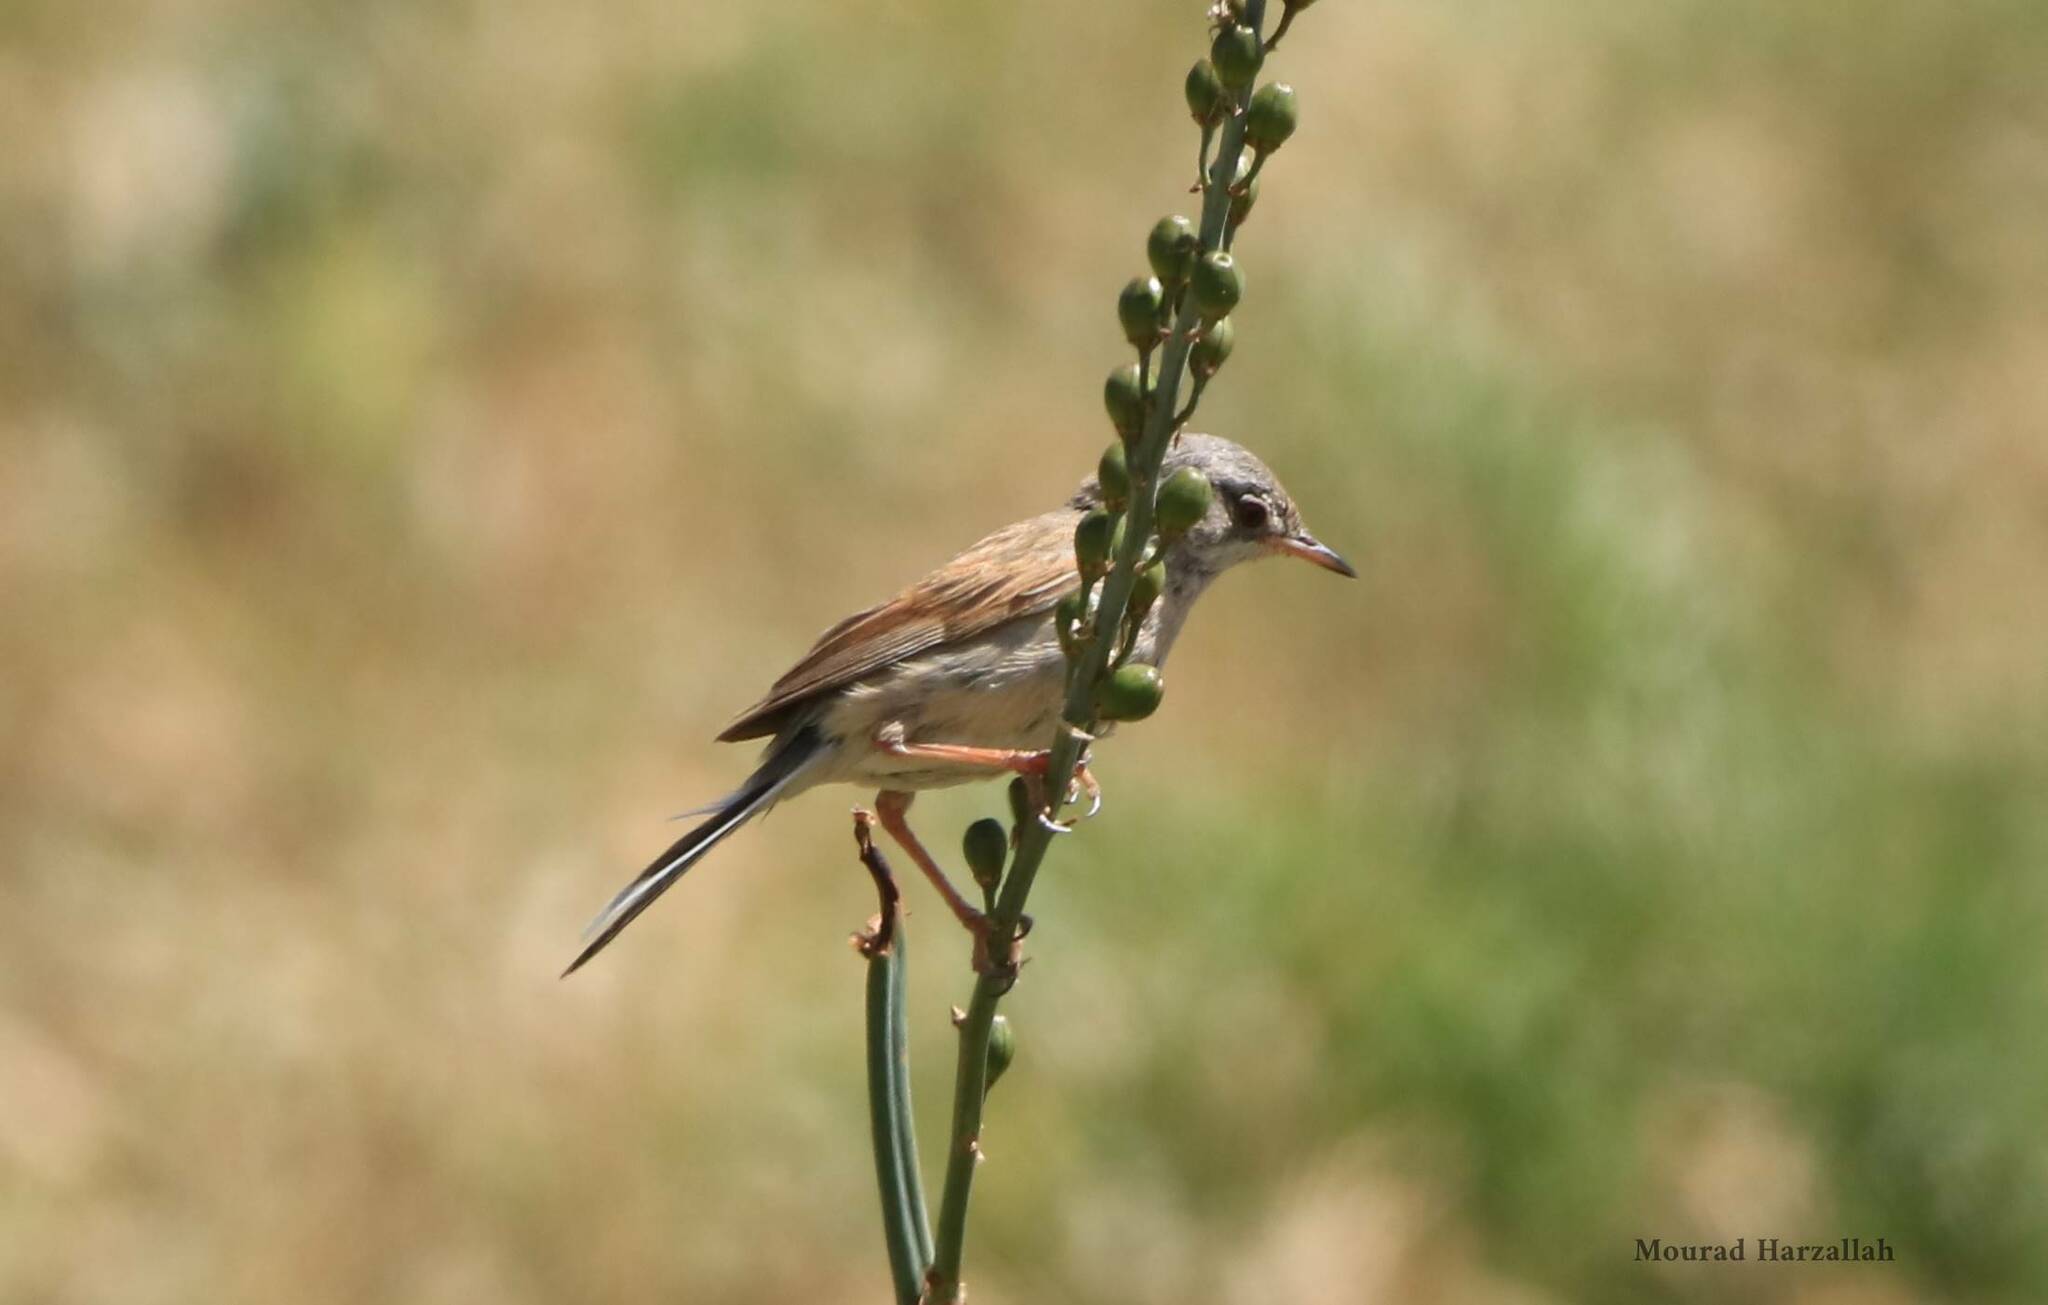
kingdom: Animalia
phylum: Chordata
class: Aves
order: Passeriformes
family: Sylviidae
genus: Sylvia
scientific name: Sylvia communis
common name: Common whitethroat
